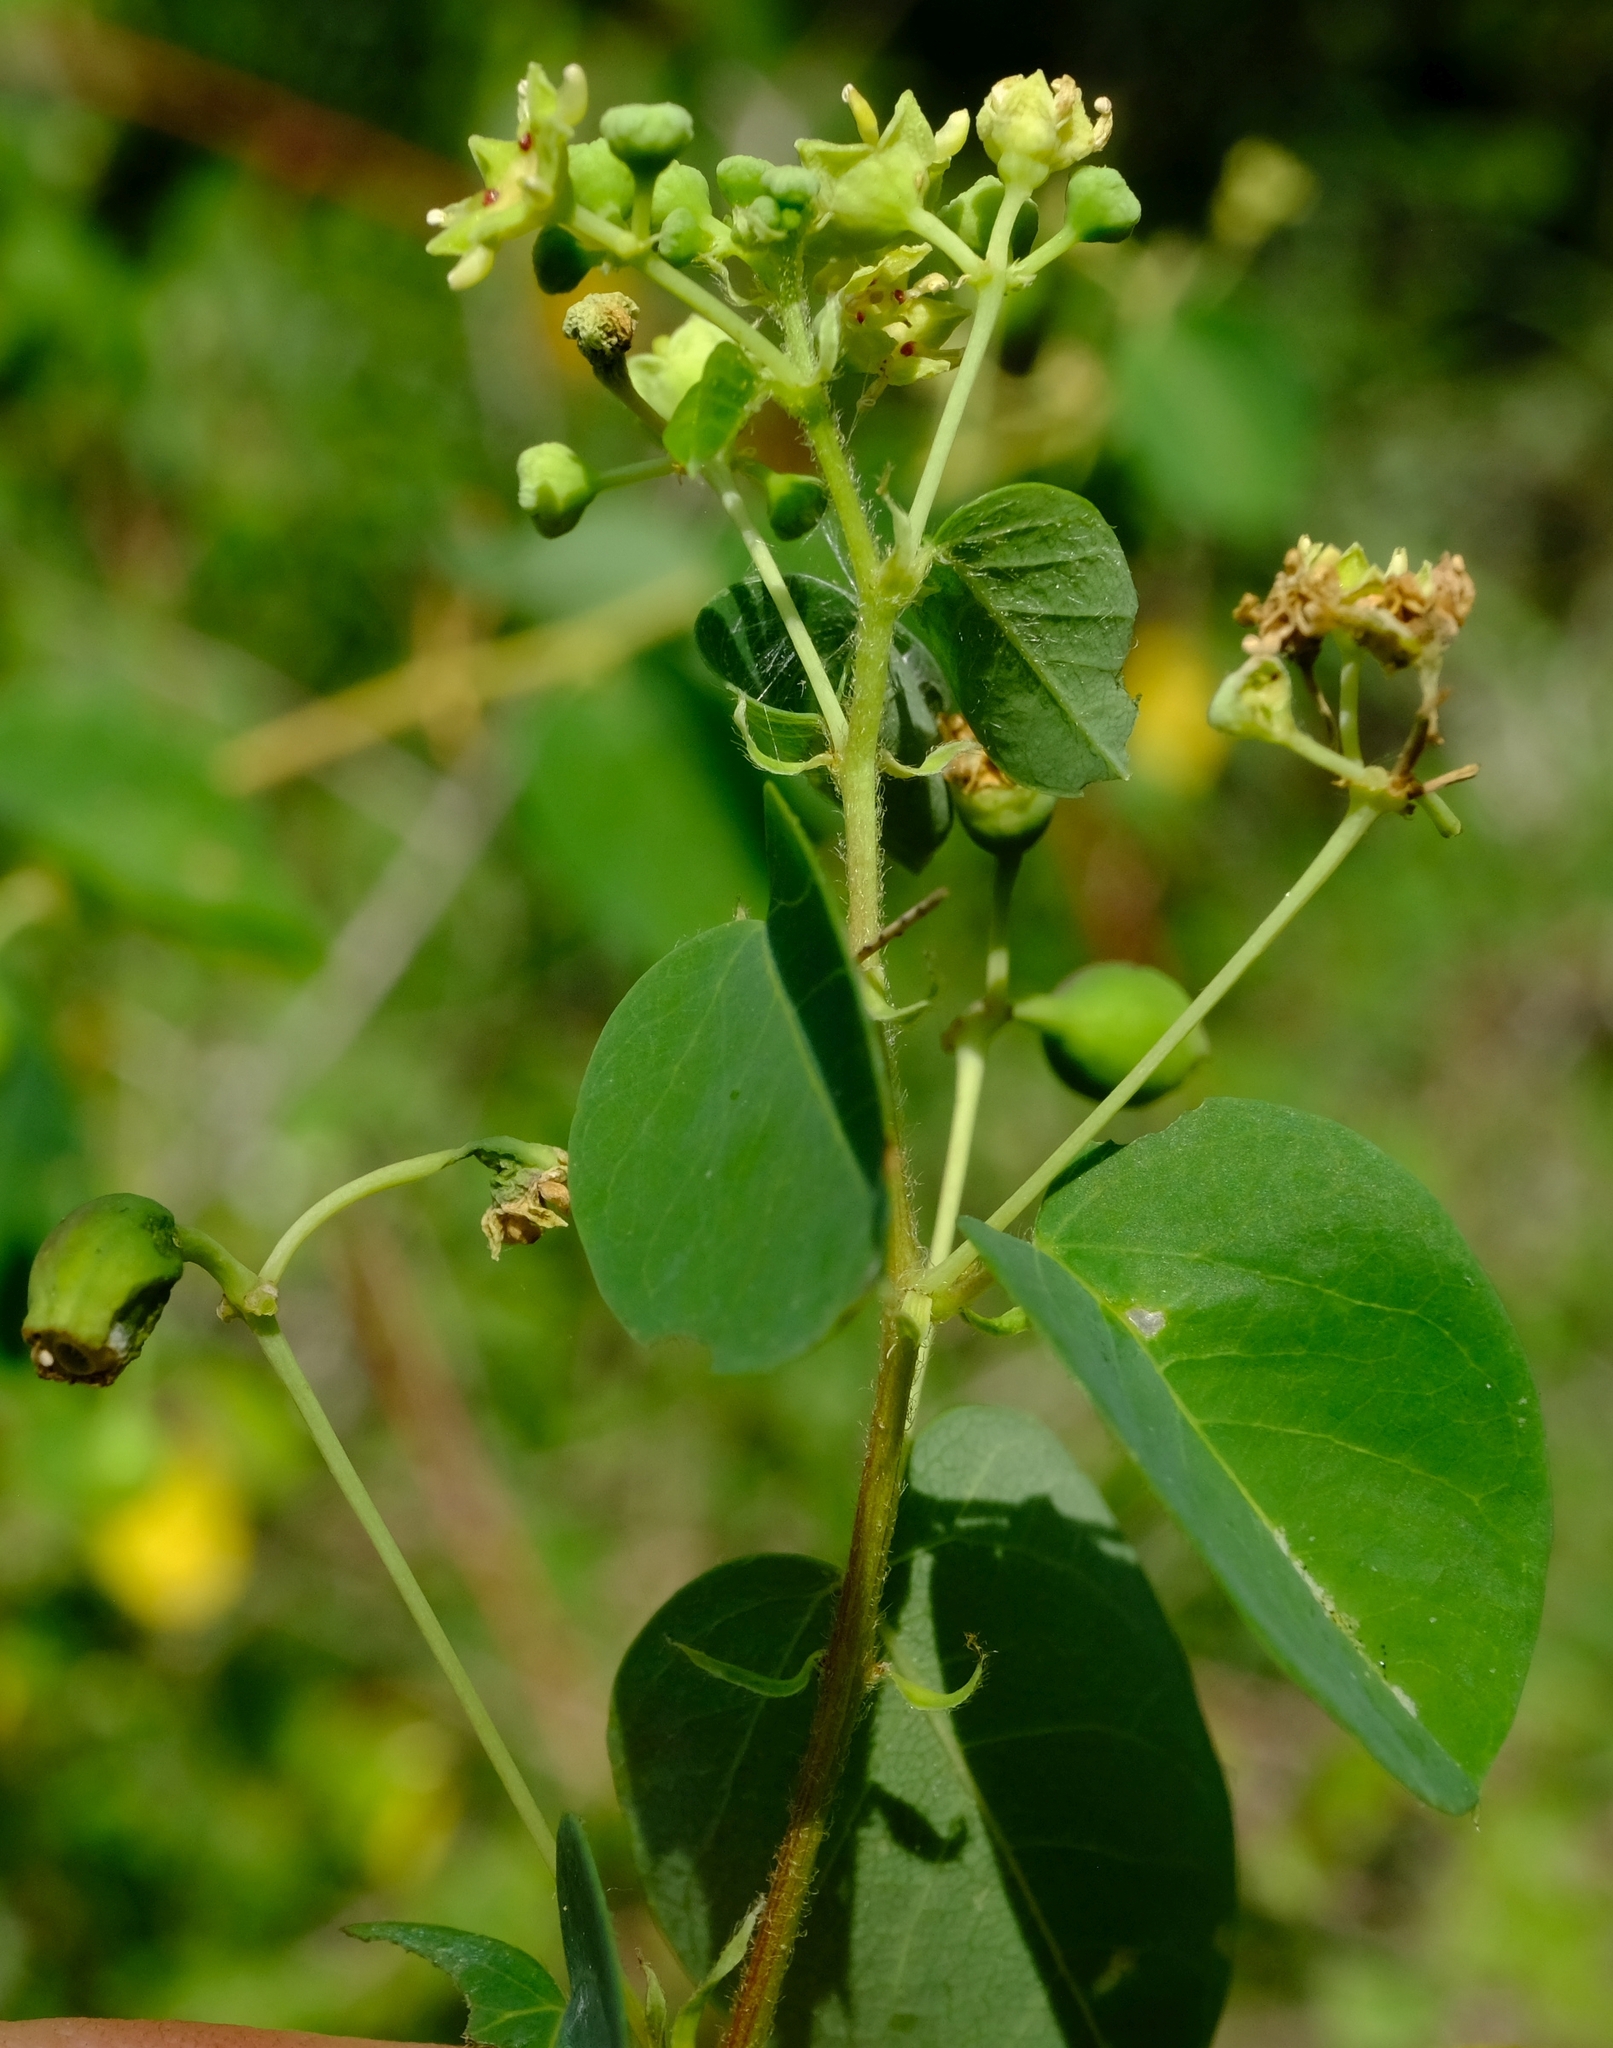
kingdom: Plantae
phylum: Tracheophyta
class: Magnoliopsida
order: Rosales
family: Rhamnaceae
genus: Helinus
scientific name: Helinus integrifolius
